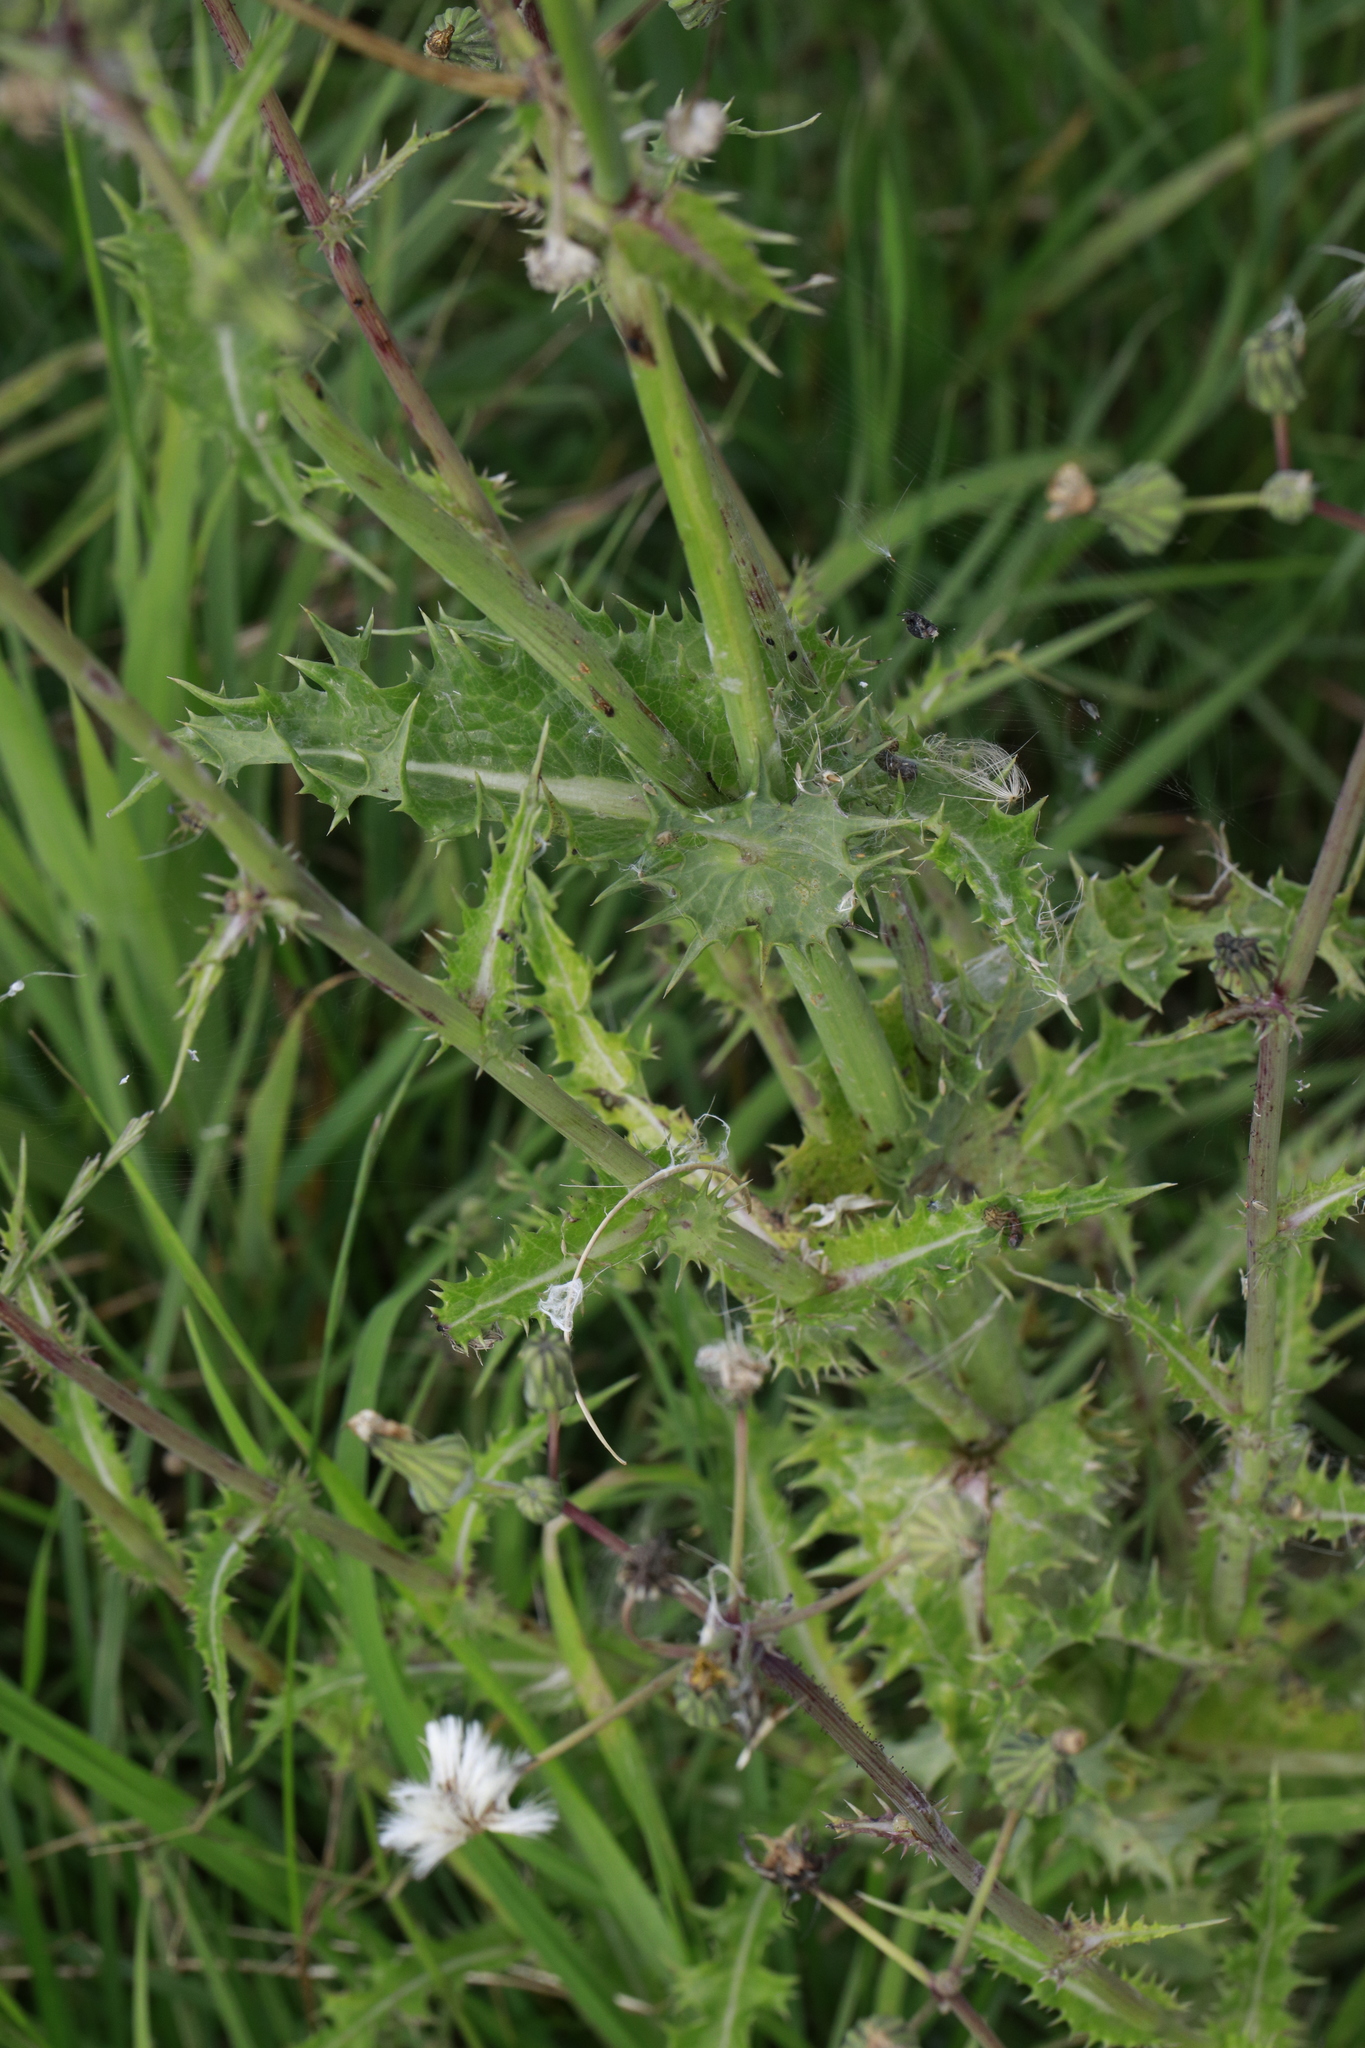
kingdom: Plantae
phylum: Tracheophyta
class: Magnoliopsida
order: Asterales
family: Asteraceae
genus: Sonchus
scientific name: Sonchus asper
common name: Prickly sow-thistle
